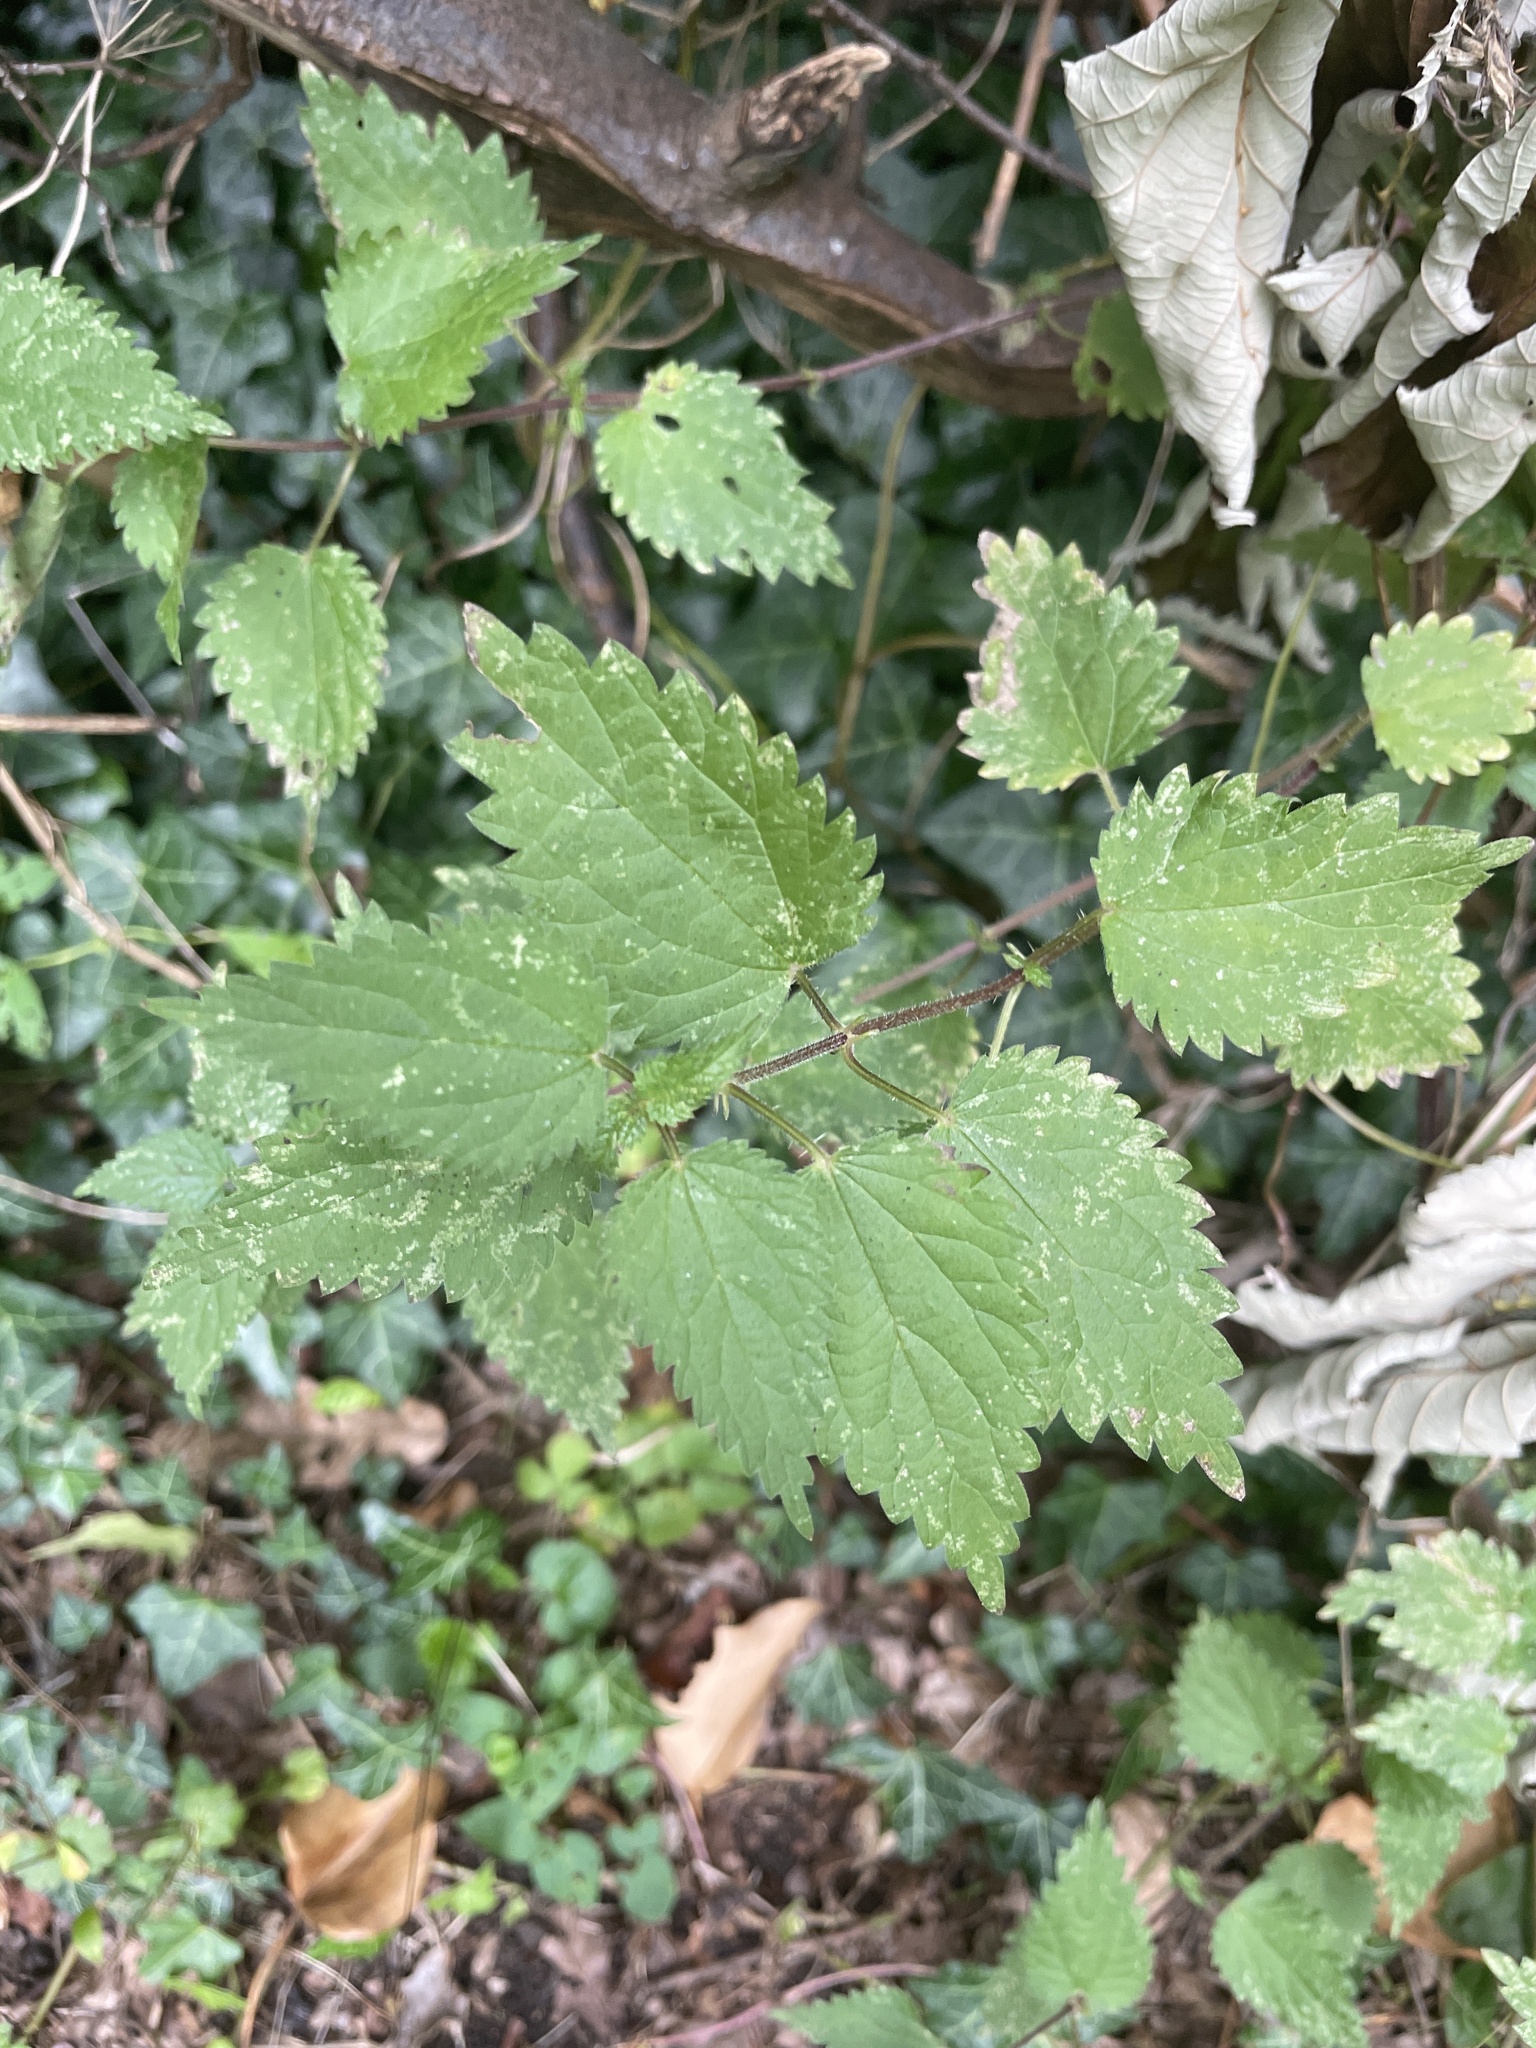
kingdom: Plantae
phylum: Tracheophyta
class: Magnoliopsida
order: Rosales
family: Urticaceae
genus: Urtica
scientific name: Urtica dioica
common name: Common nettle
